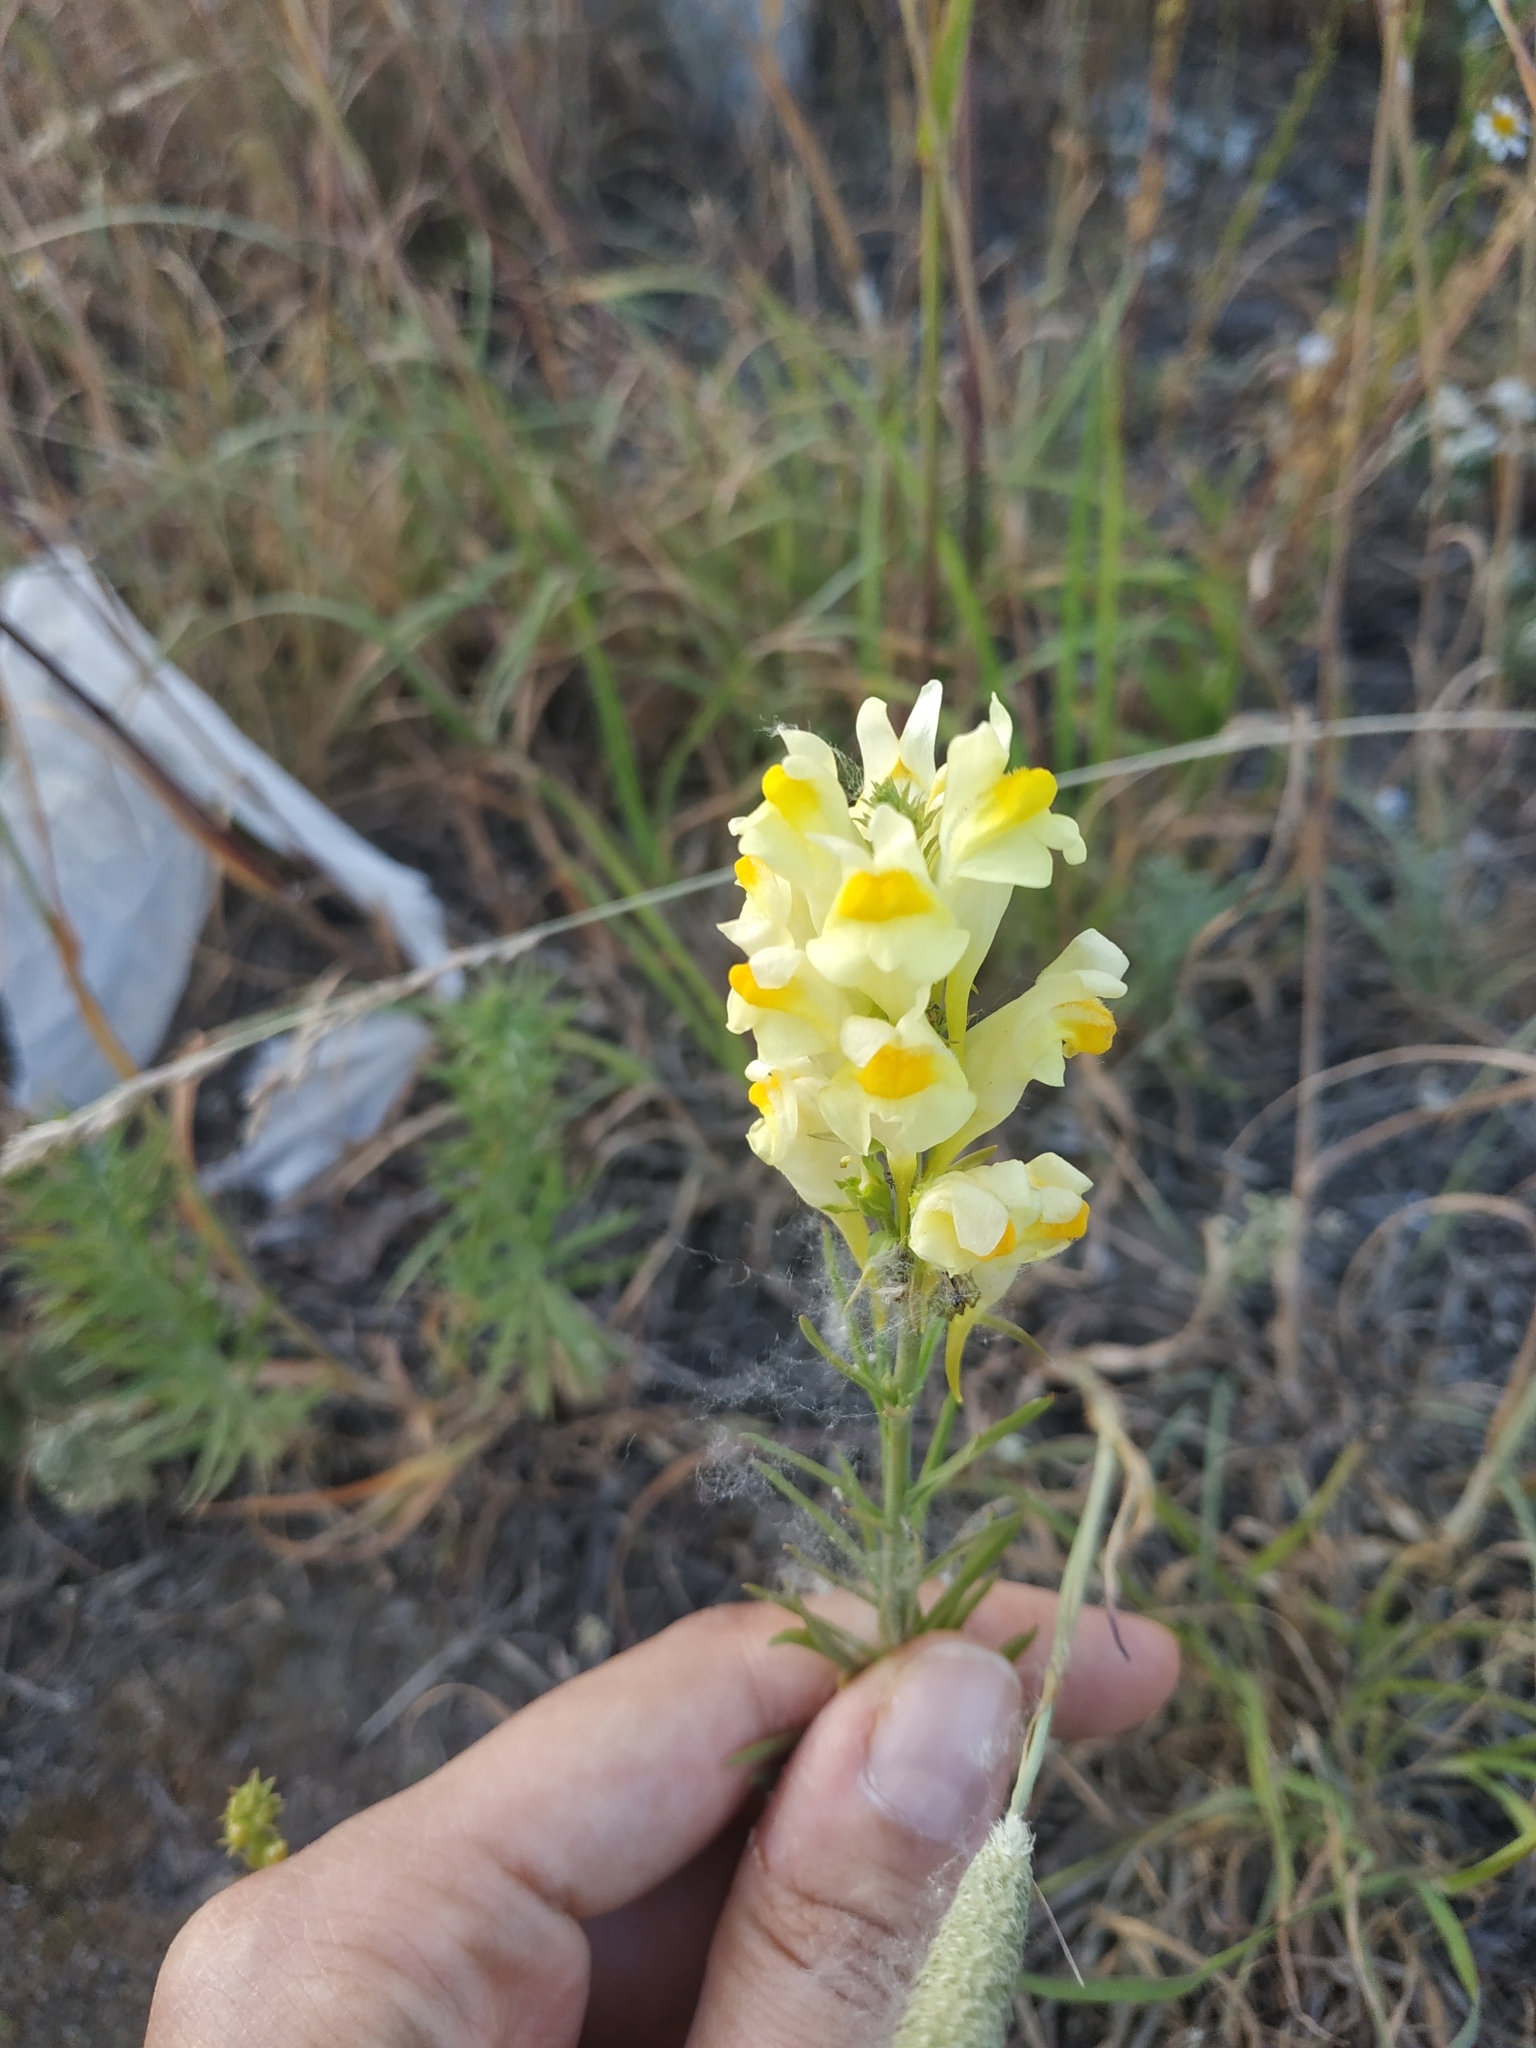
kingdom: Plantae
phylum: Tracheophyta
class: Magnoliopsida
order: Lamiales
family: Plantaginaceae
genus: Linaria
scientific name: Linaria vulgaris
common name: Butter and eggs
